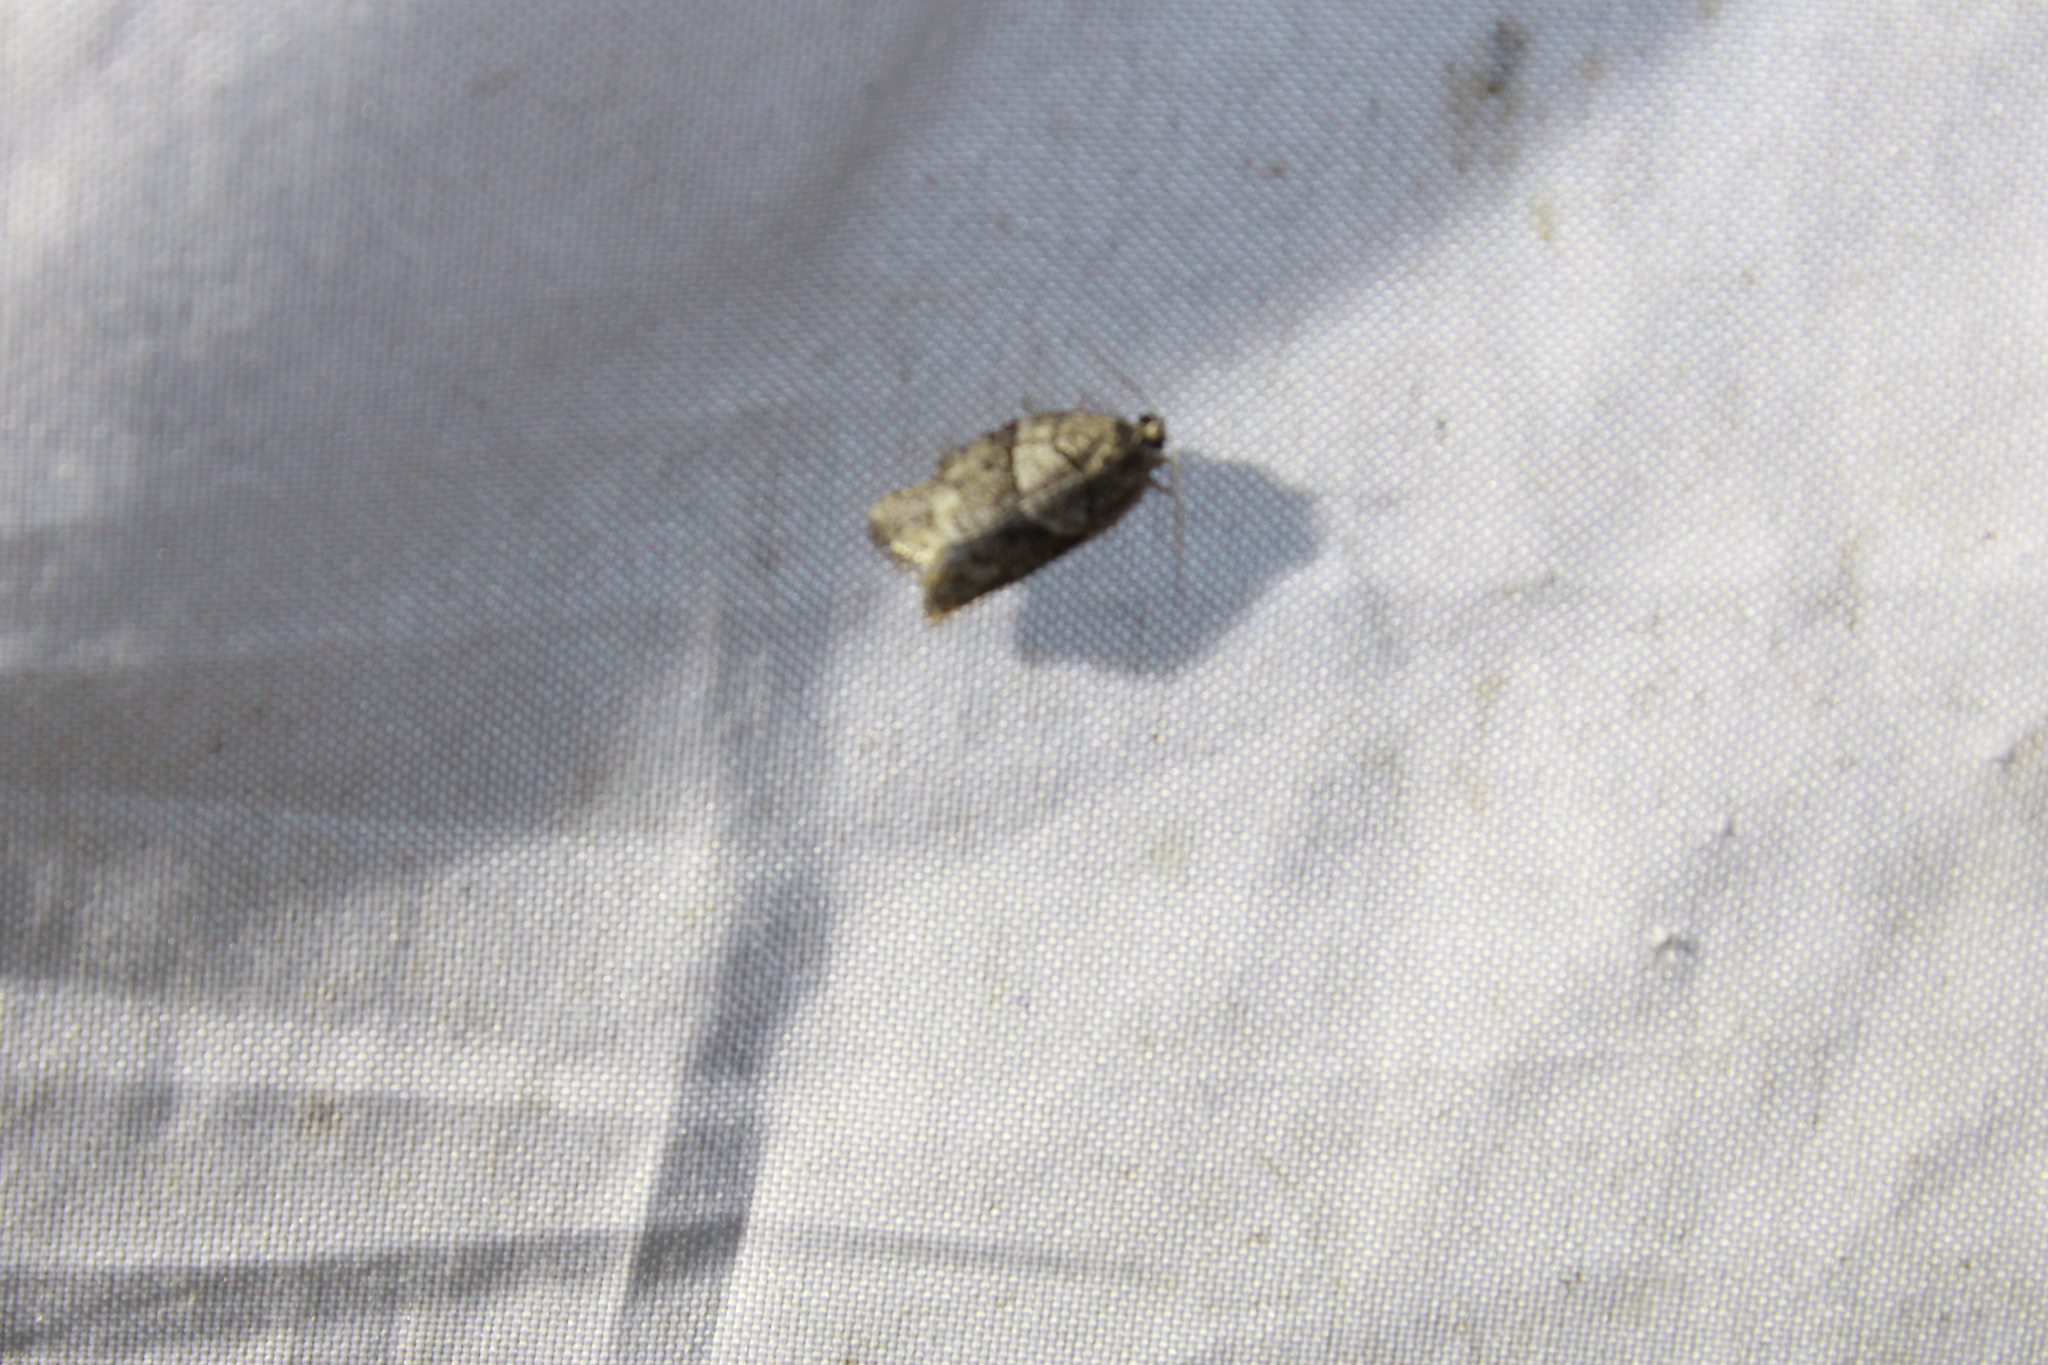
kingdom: Animalia
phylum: Arthropoda
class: Insecta
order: Lepidoptera
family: Tortricidae
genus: Syndemis
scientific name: Syndemis afflictana
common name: Gray leafroller moth
